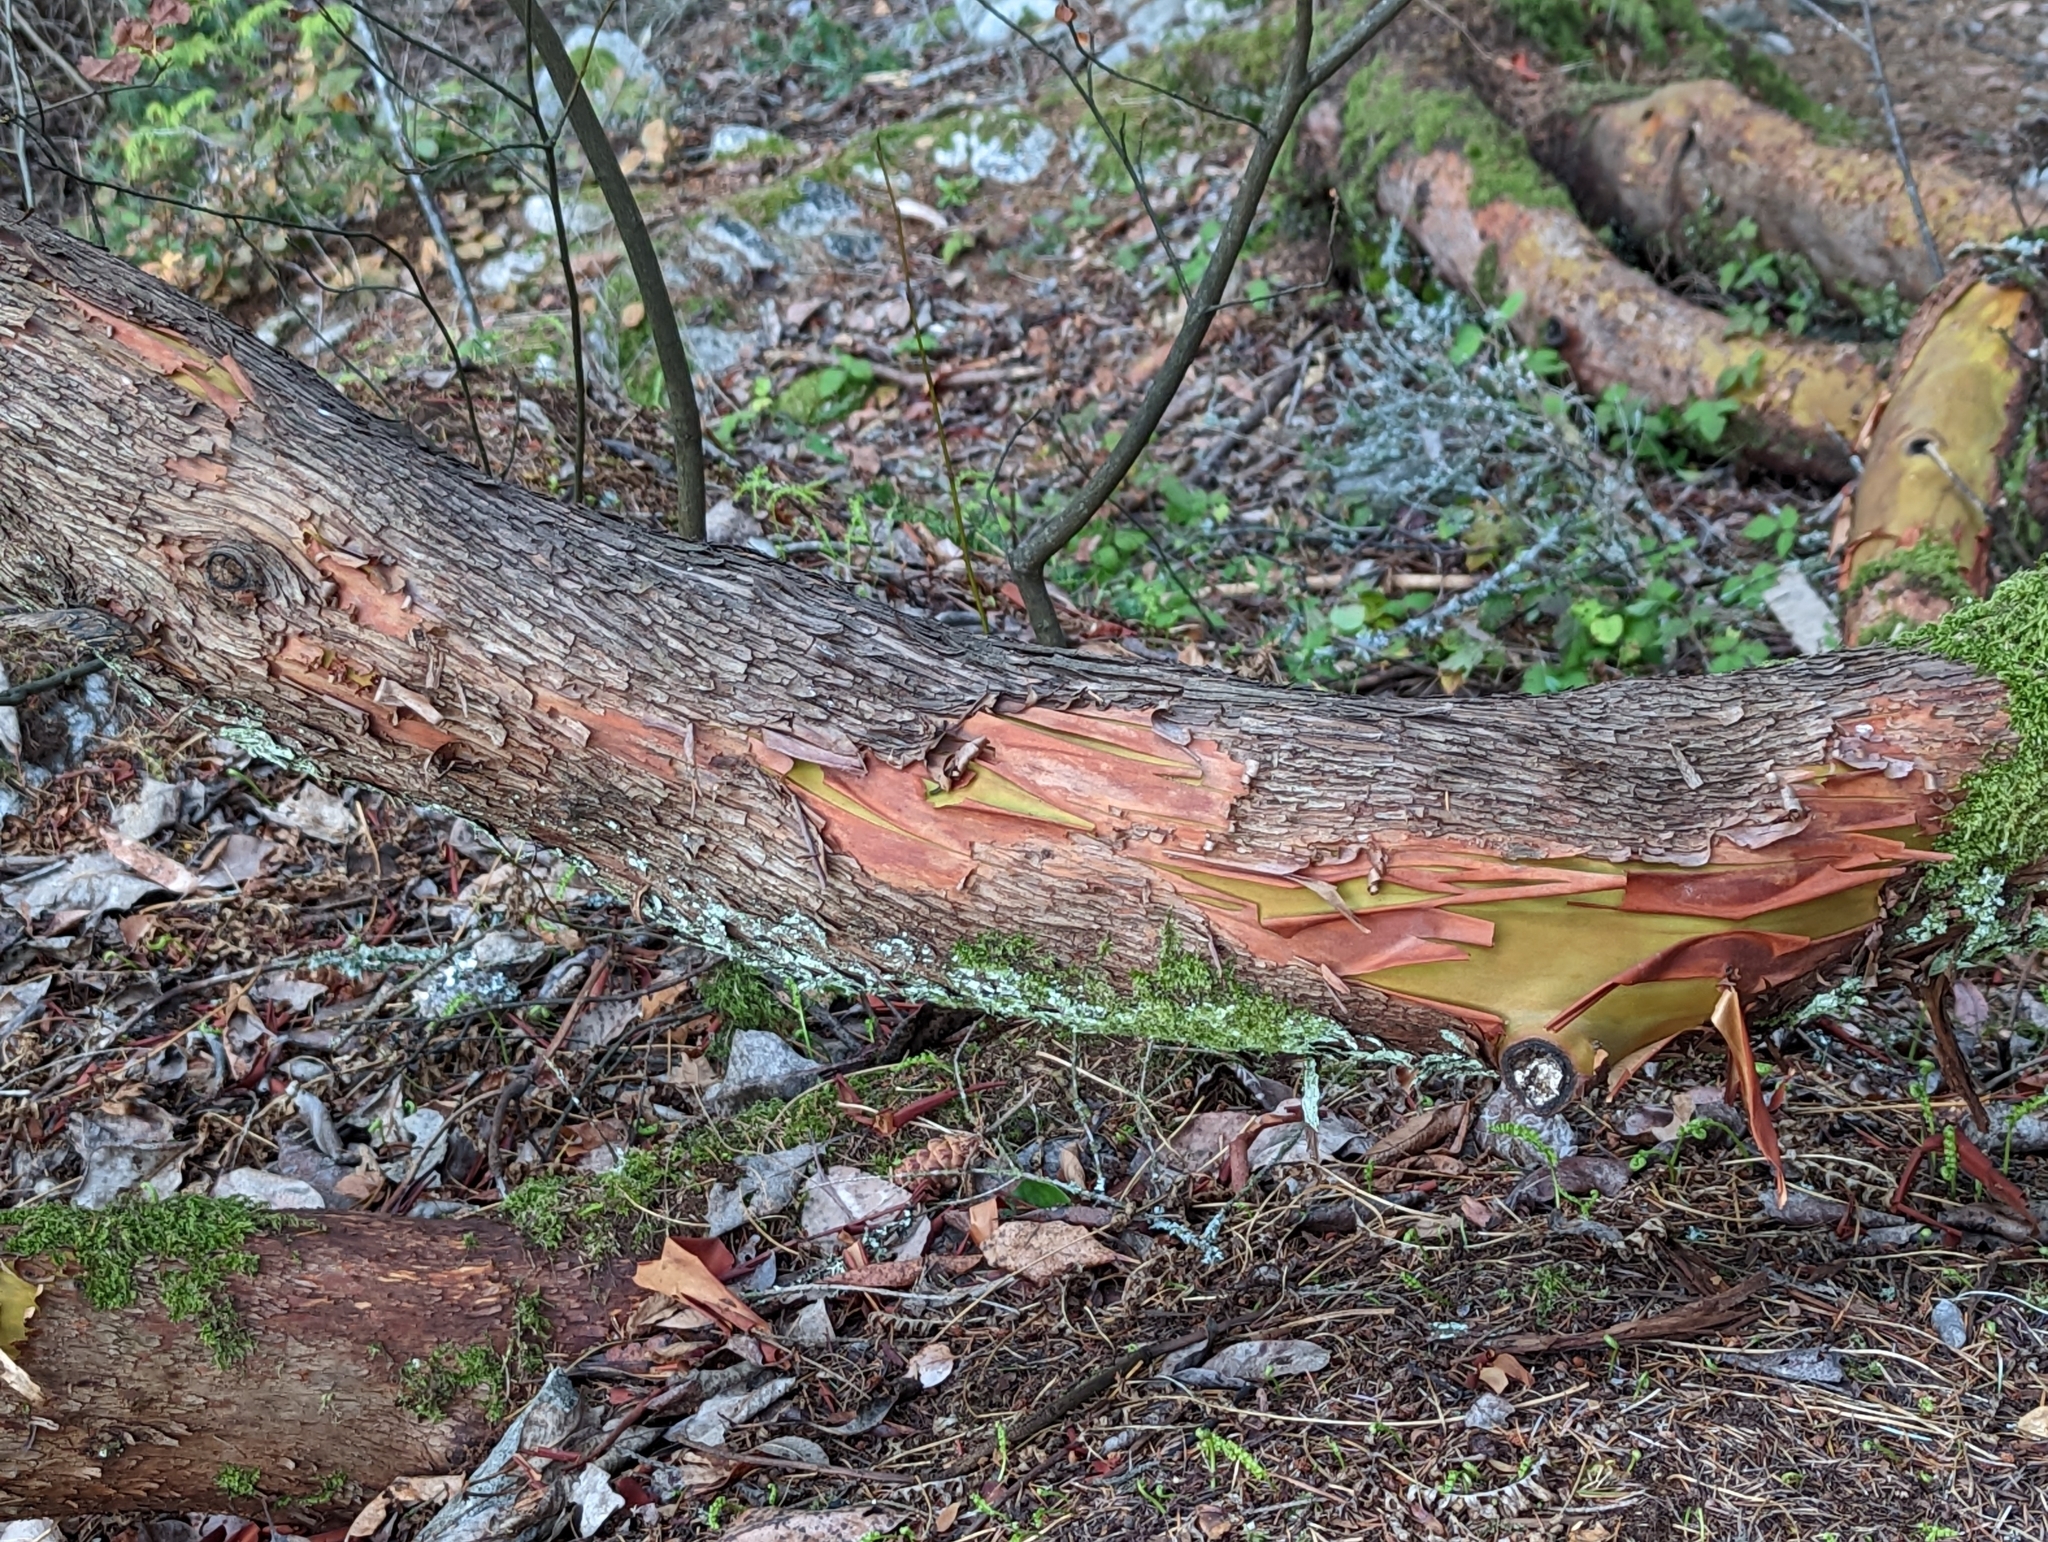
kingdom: Plantae
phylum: Tracheophyta
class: Magnoliopsida
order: Ericales
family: Ericaceae
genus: Arbutus
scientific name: Arbutus menziesii
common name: Pacific madrone
